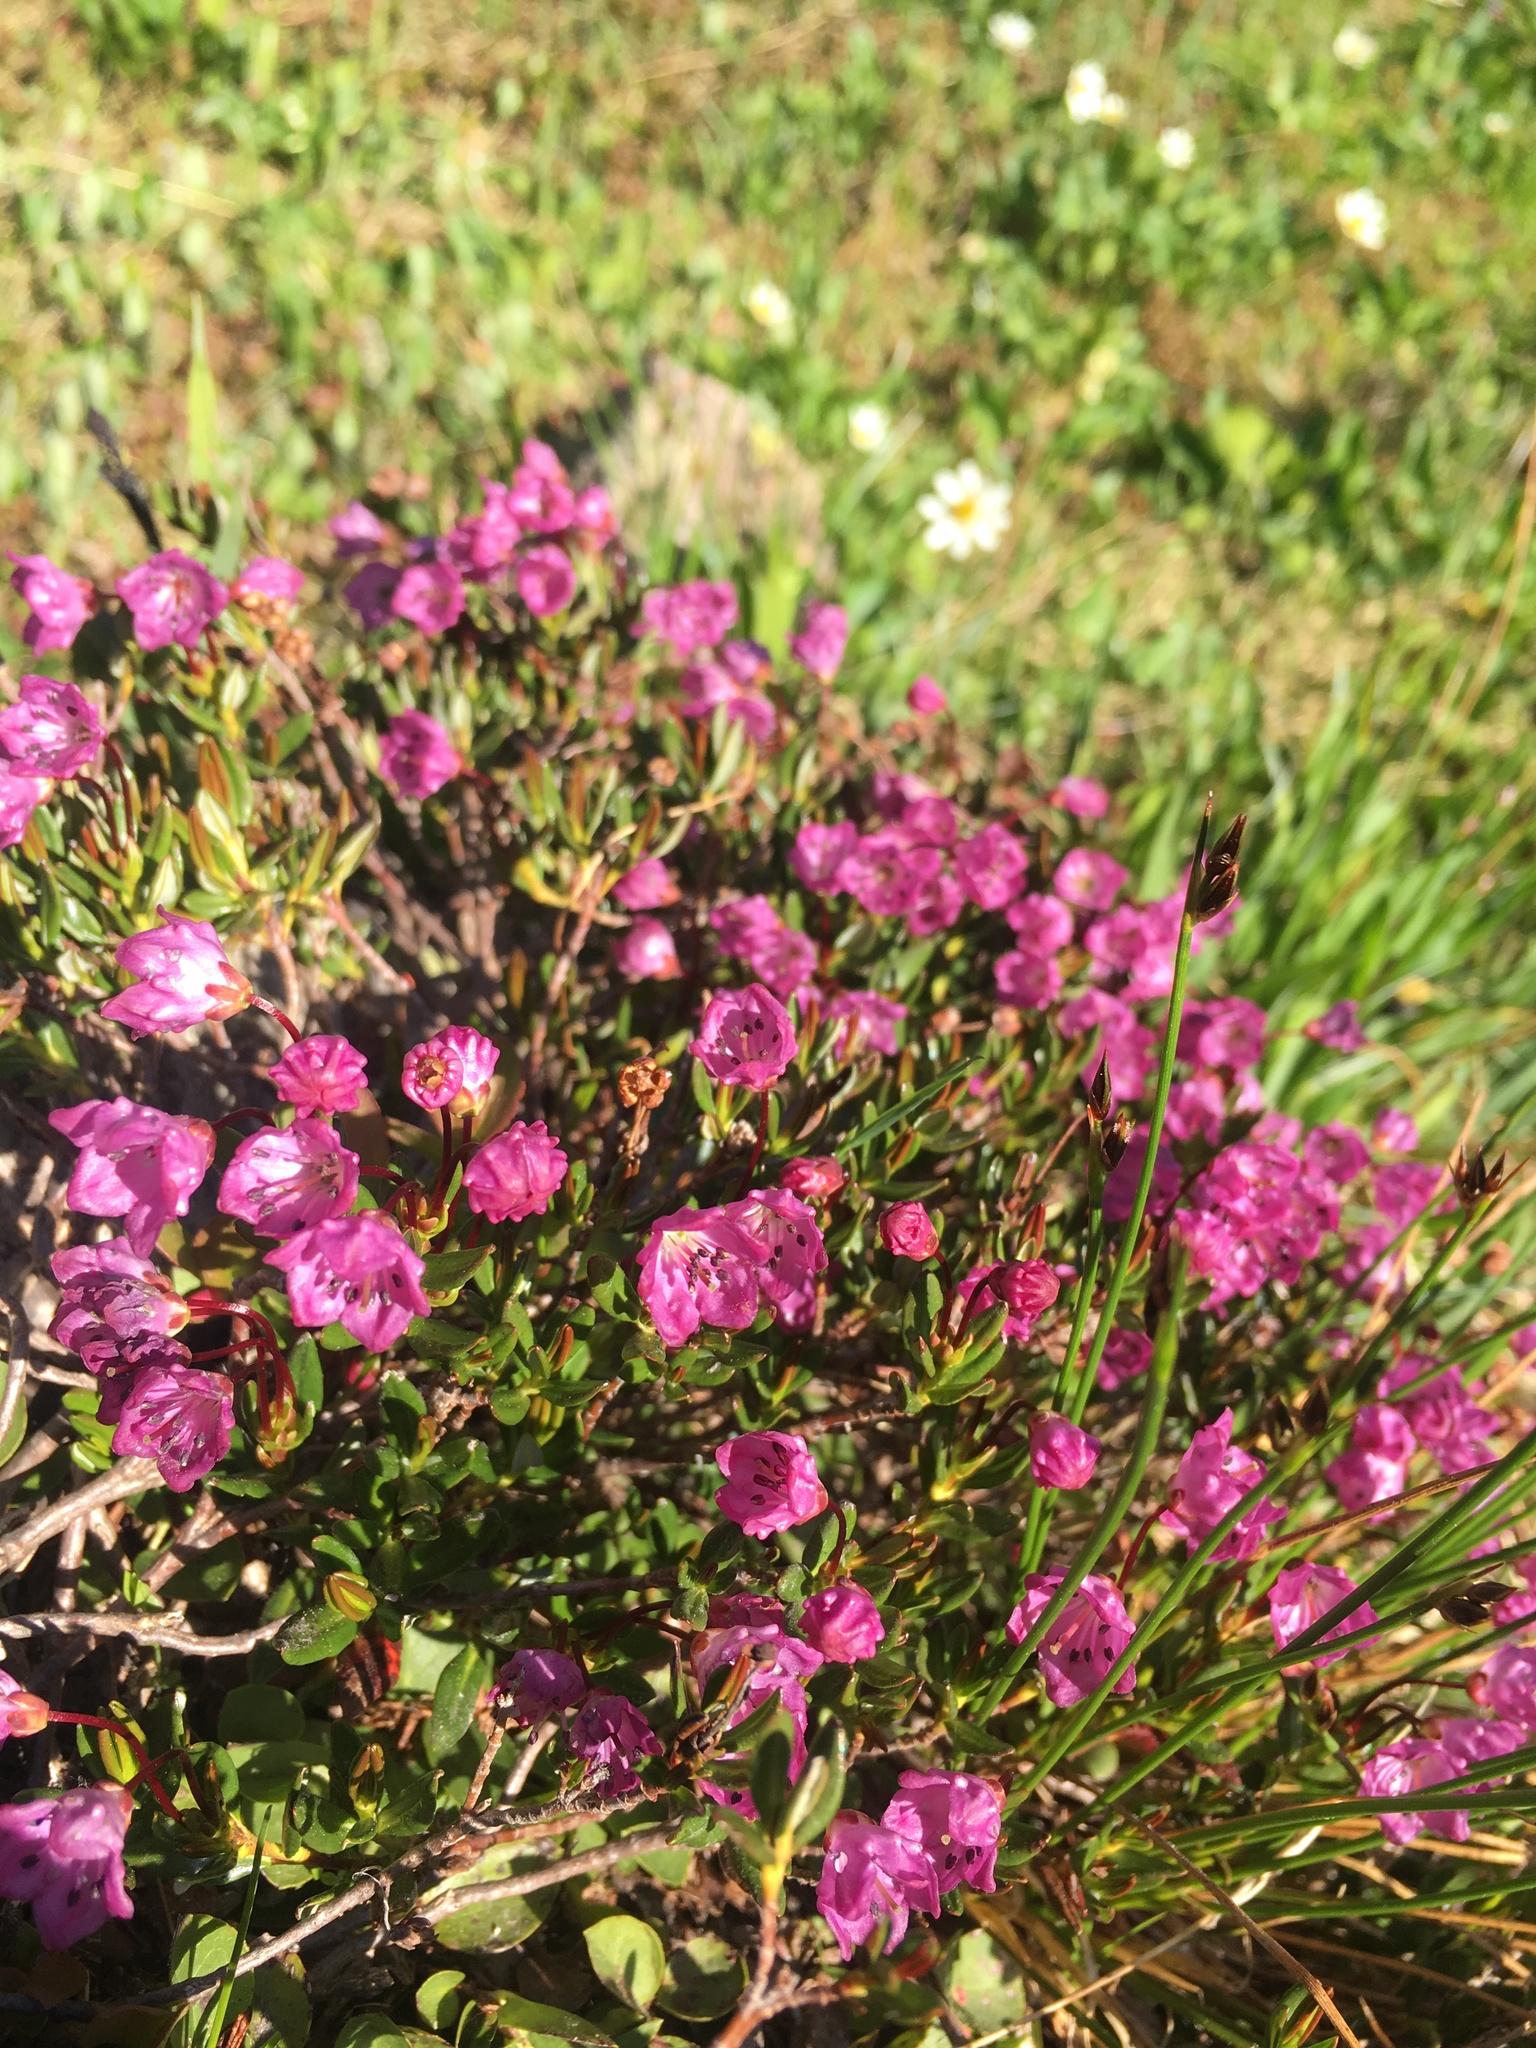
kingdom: Plantae
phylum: Tracheophyta
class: Magnoliopsida
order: Ericales
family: Ericaceae
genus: Kalmia
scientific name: Kalmia microphylla
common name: Alpine bog laurel
